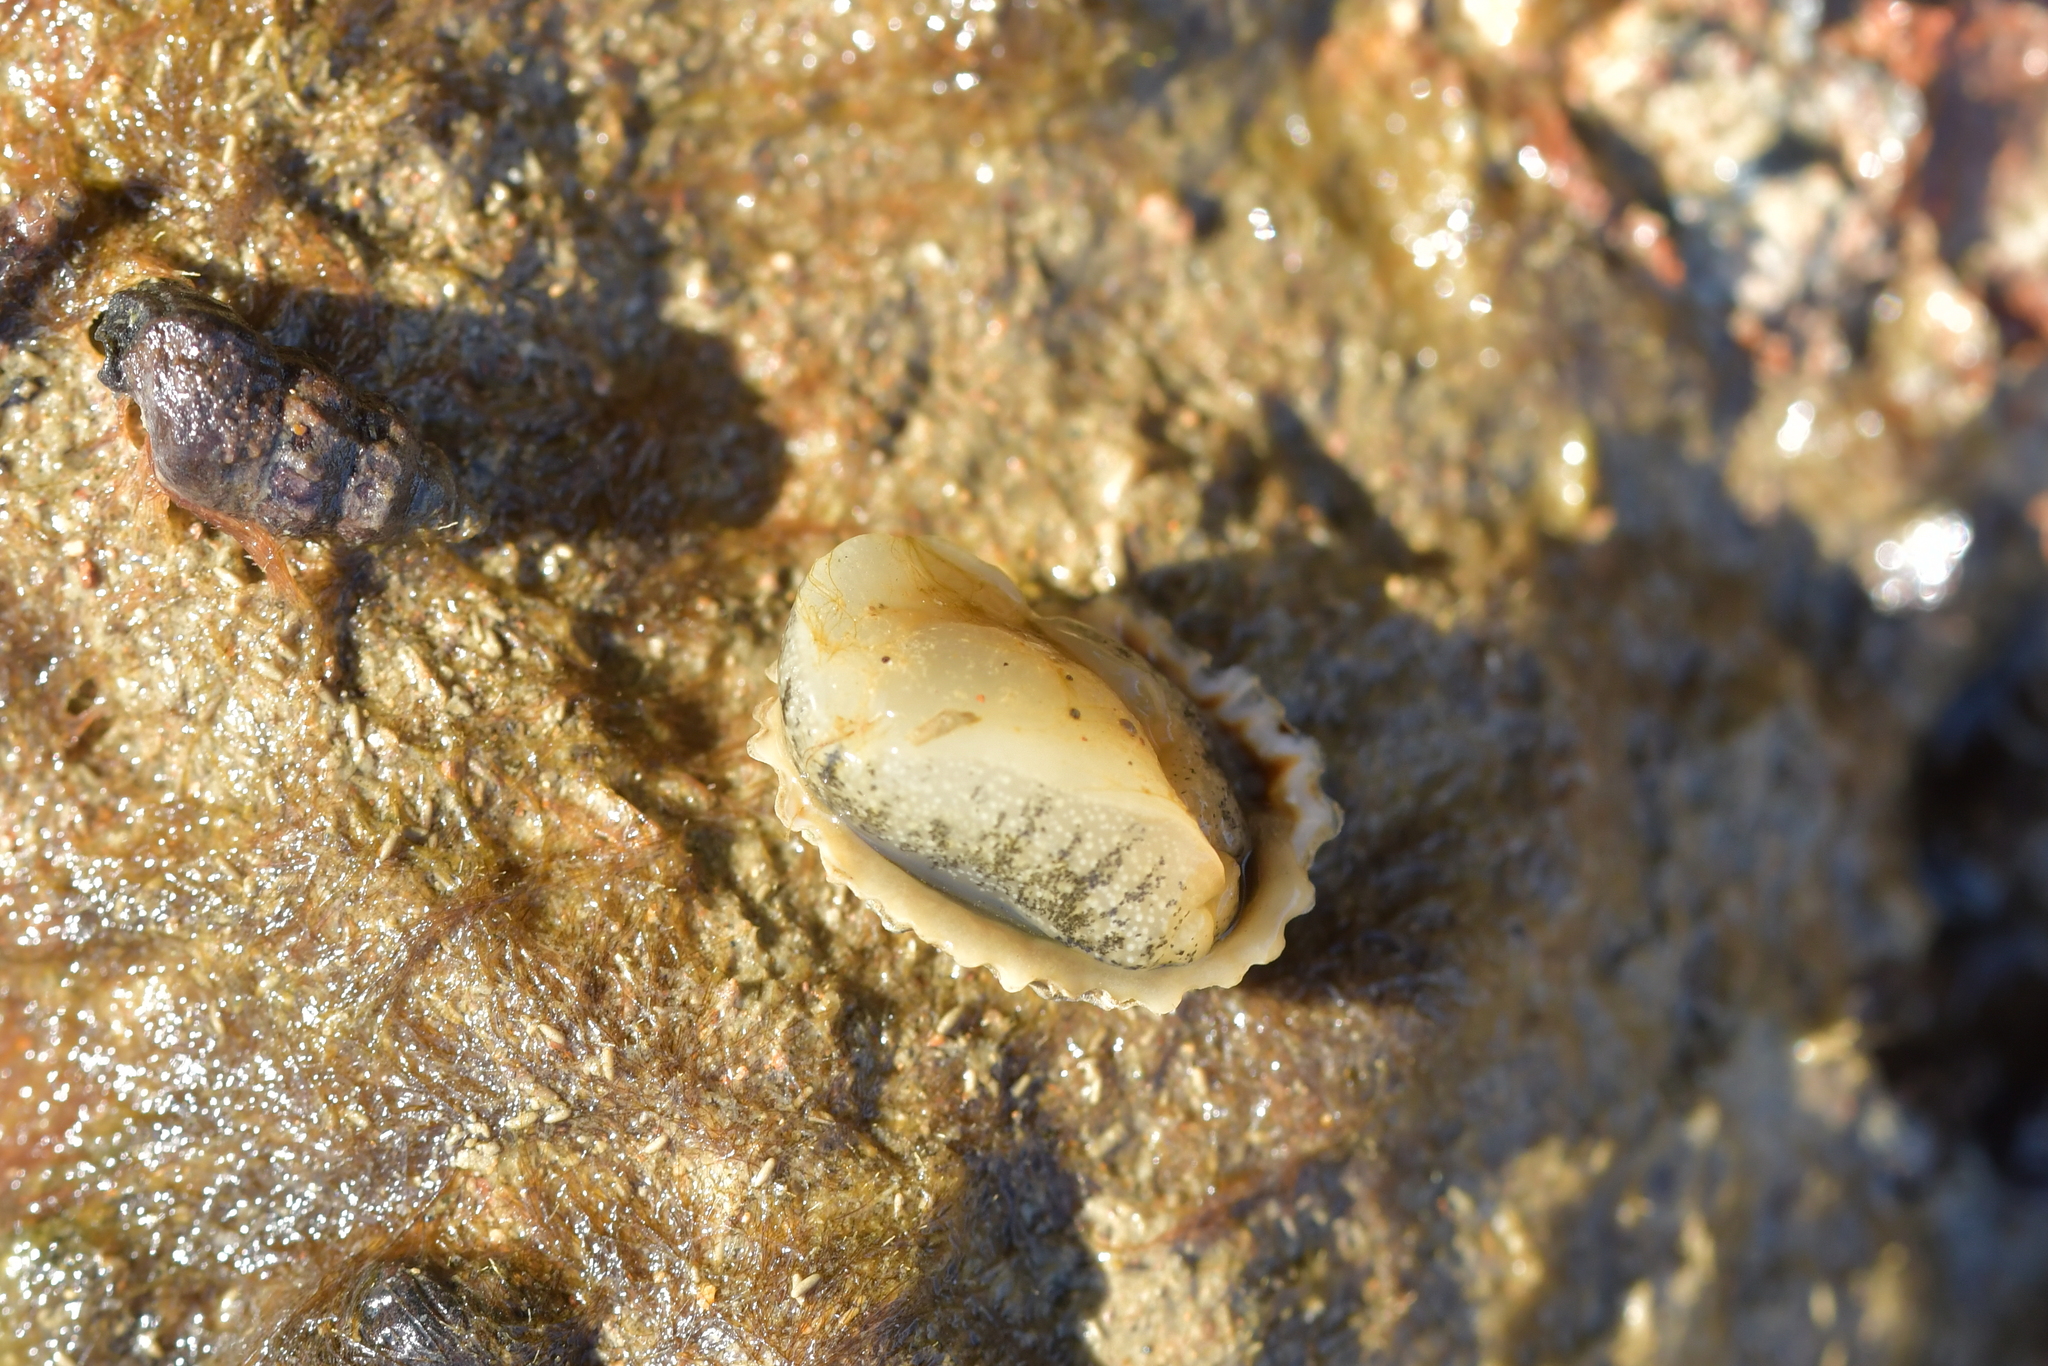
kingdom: Animalia
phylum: Mollusca
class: Gastropoda
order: Siphonariida
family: Siphonariidae
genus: Siphonaria
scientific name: Siphonaria australis
